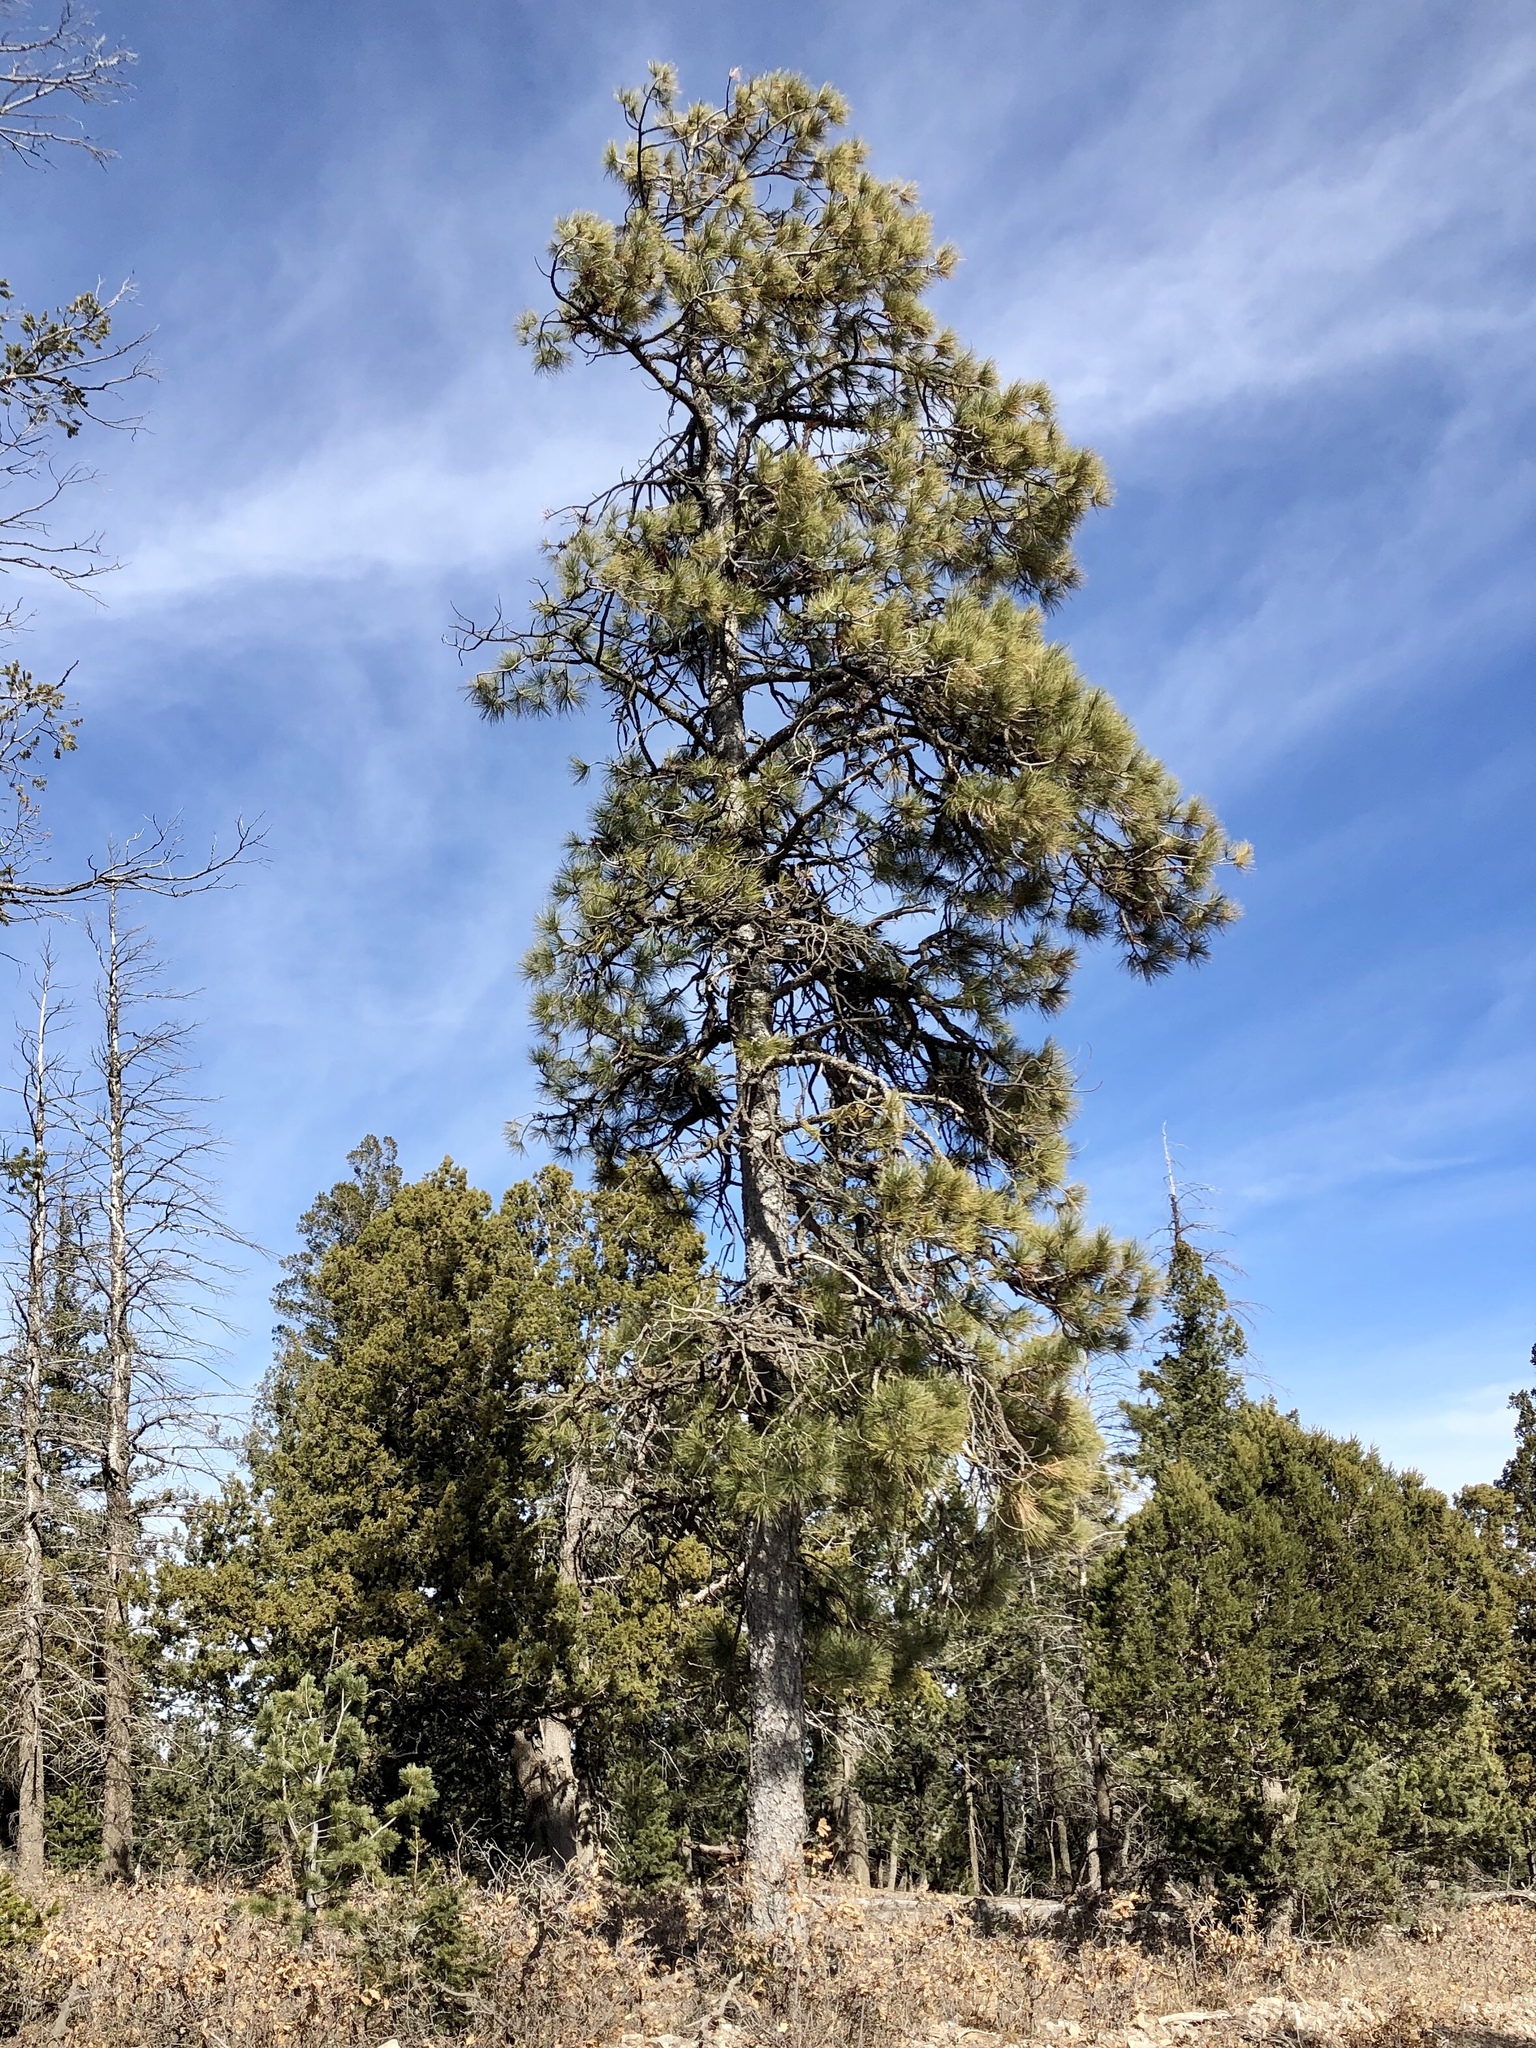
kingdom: Plantae
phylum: Tracheophyta
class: Pinopsida
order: Pinales
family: Pinaceae
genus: Pinus
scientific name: Pinus ponderosa
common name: Western yellow-pine
